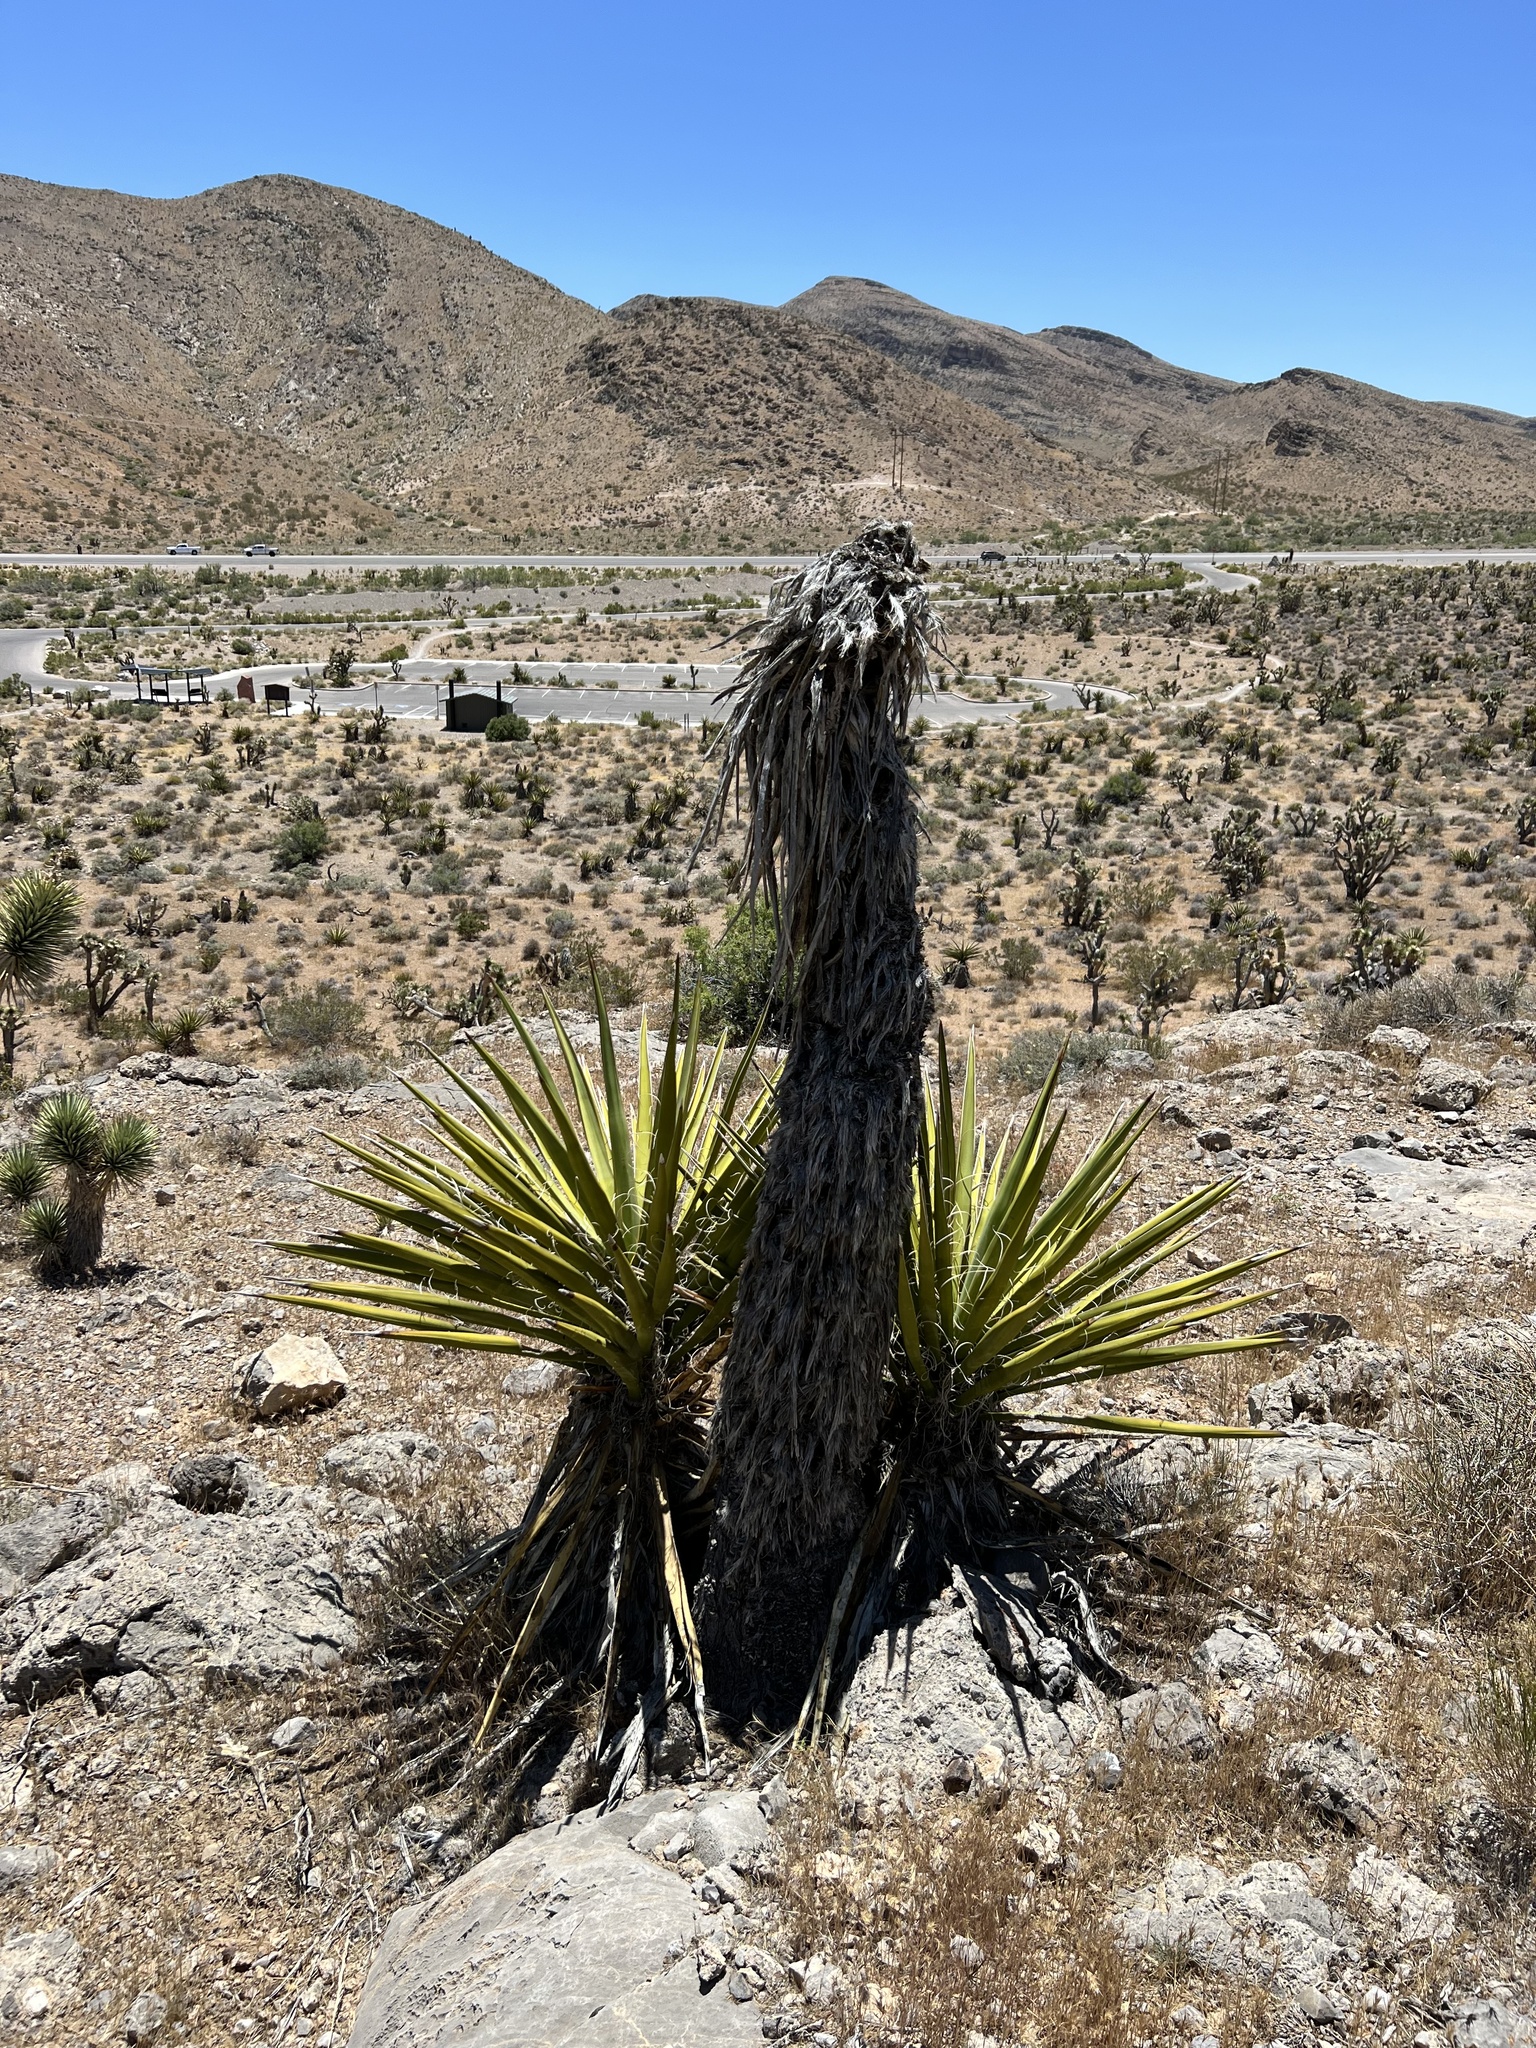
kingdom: Plantae
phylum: Tracheophyta
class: Liliopsida
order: Asparagales
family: Asparagaceae
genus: Yucca
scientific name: Yucca schidigera
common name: Mojave yucca
